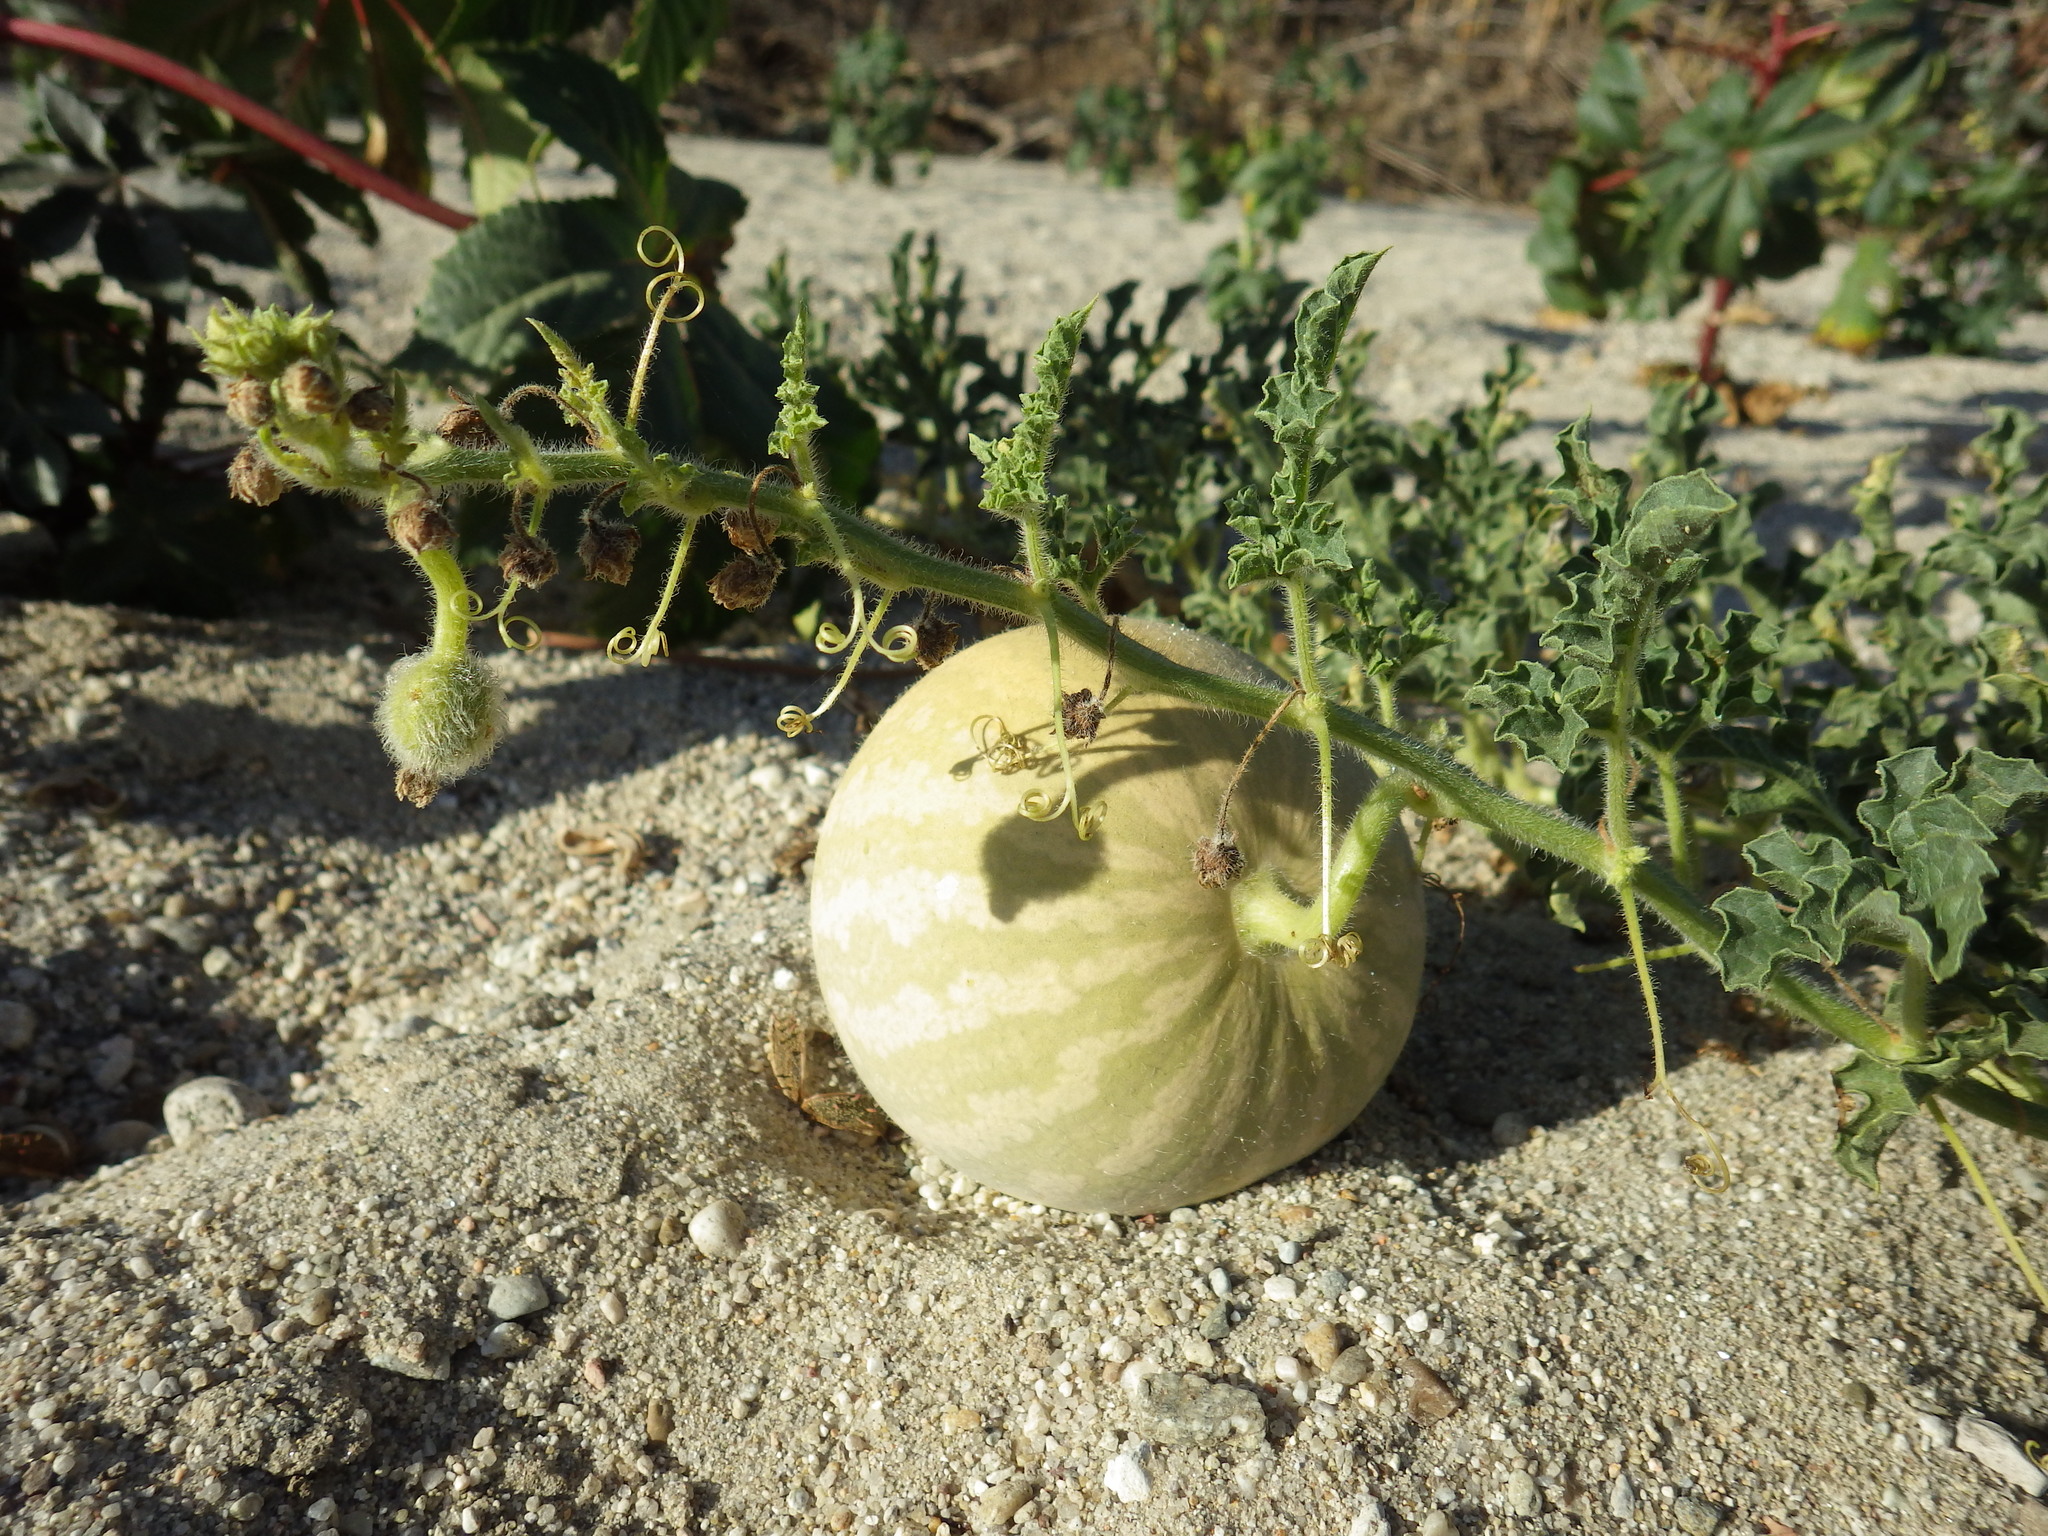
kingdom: Plantae
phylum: Tracheophyta
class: Magnoliopsida
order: Cucurbitales
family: Cucurbitaceae
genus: Citrullus
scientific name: Citrullus colocynthis
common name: Colocynth
